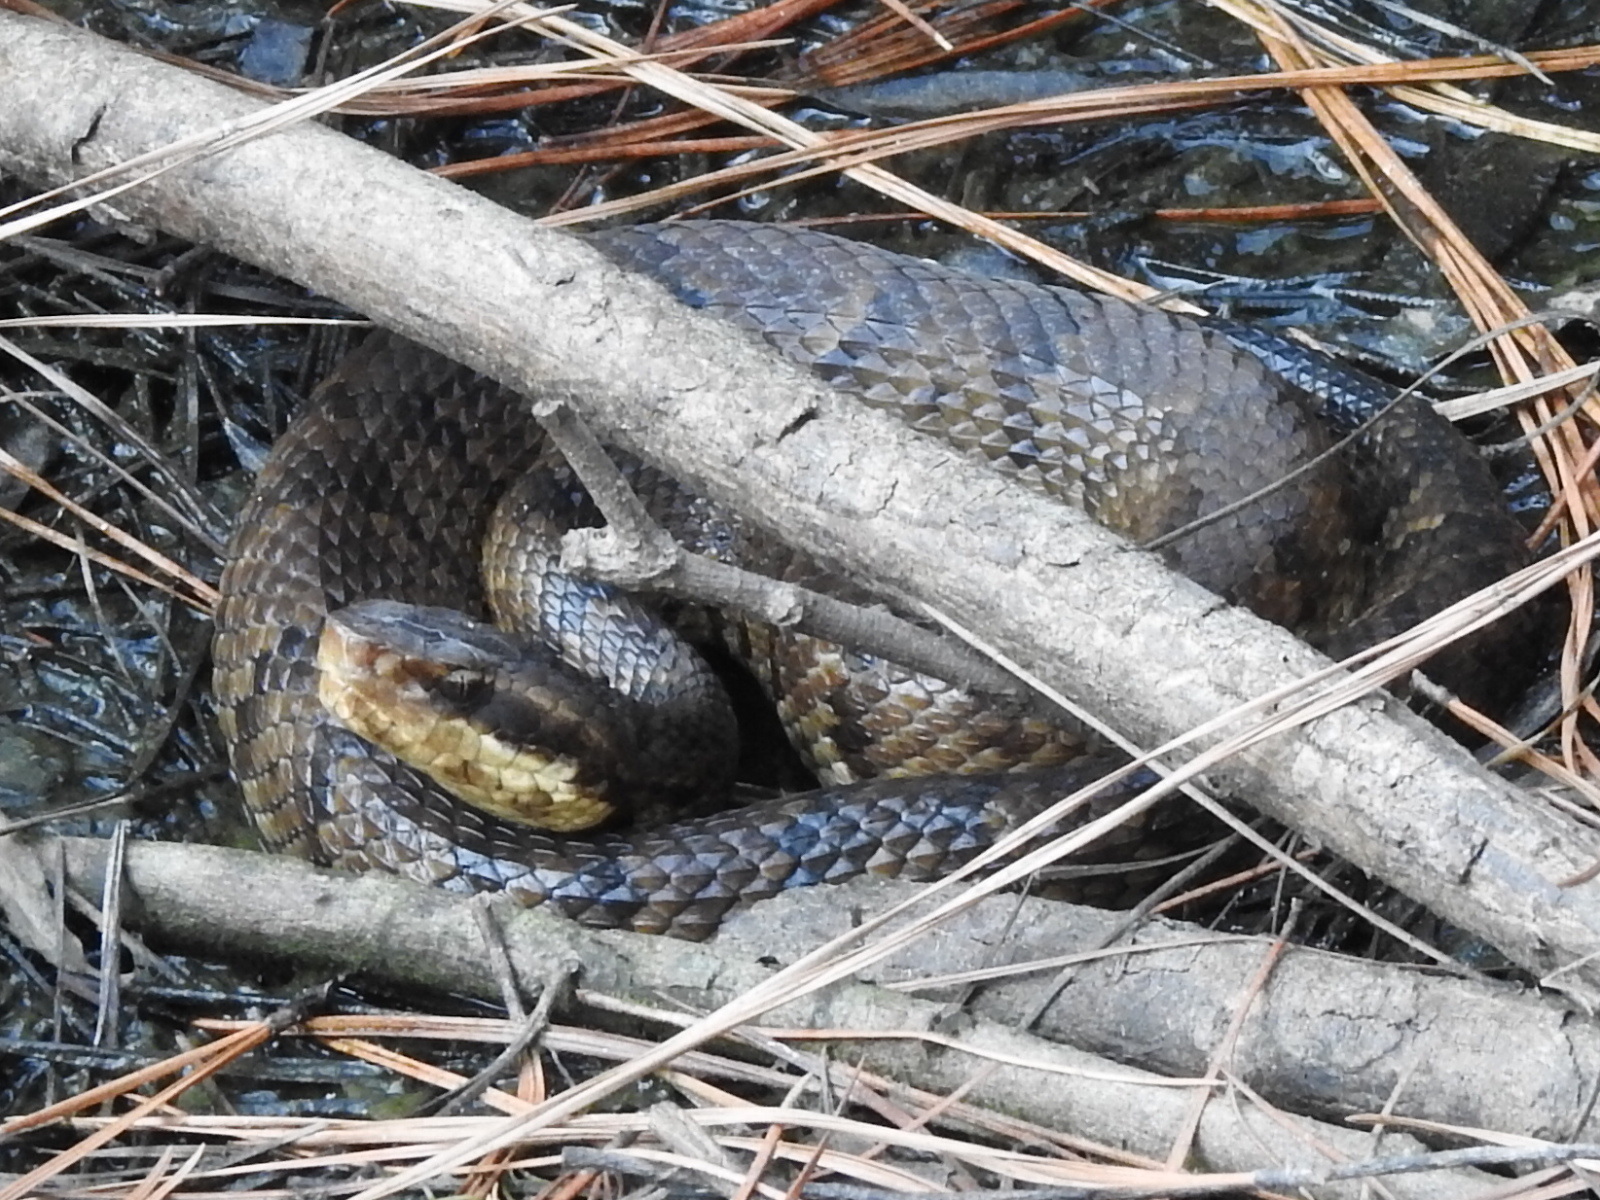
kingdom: Animalia
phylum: Chordata
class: Squamata
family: Viperidae
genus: Agkistrodon
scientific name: Agkistrodon piscivorus
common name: Cottonmouth
